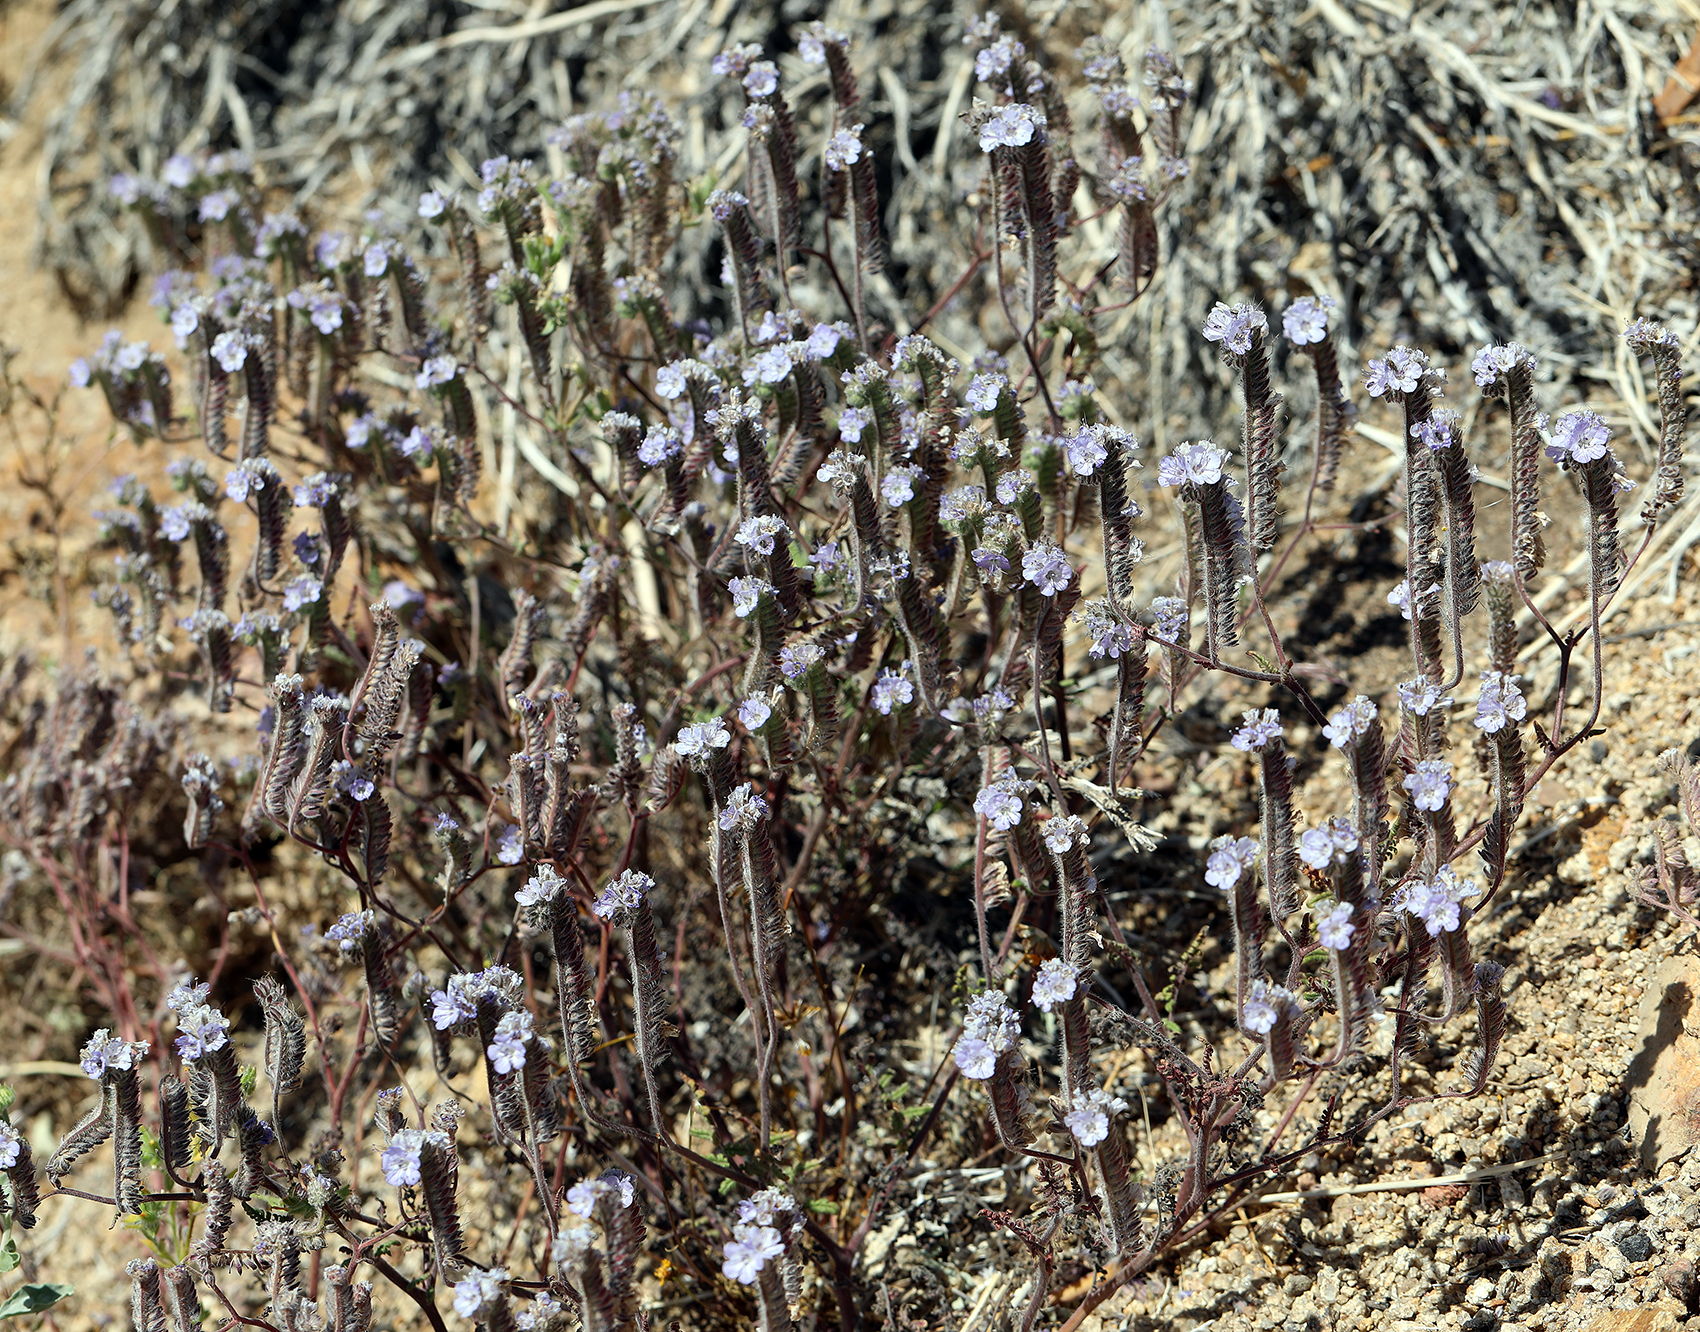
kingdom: Plantae
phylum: Tracheophyta
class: Magnoliopsida
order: Boraginales
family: Hydrophyllaceae
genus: Phacelia
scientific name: Phacelia distans
